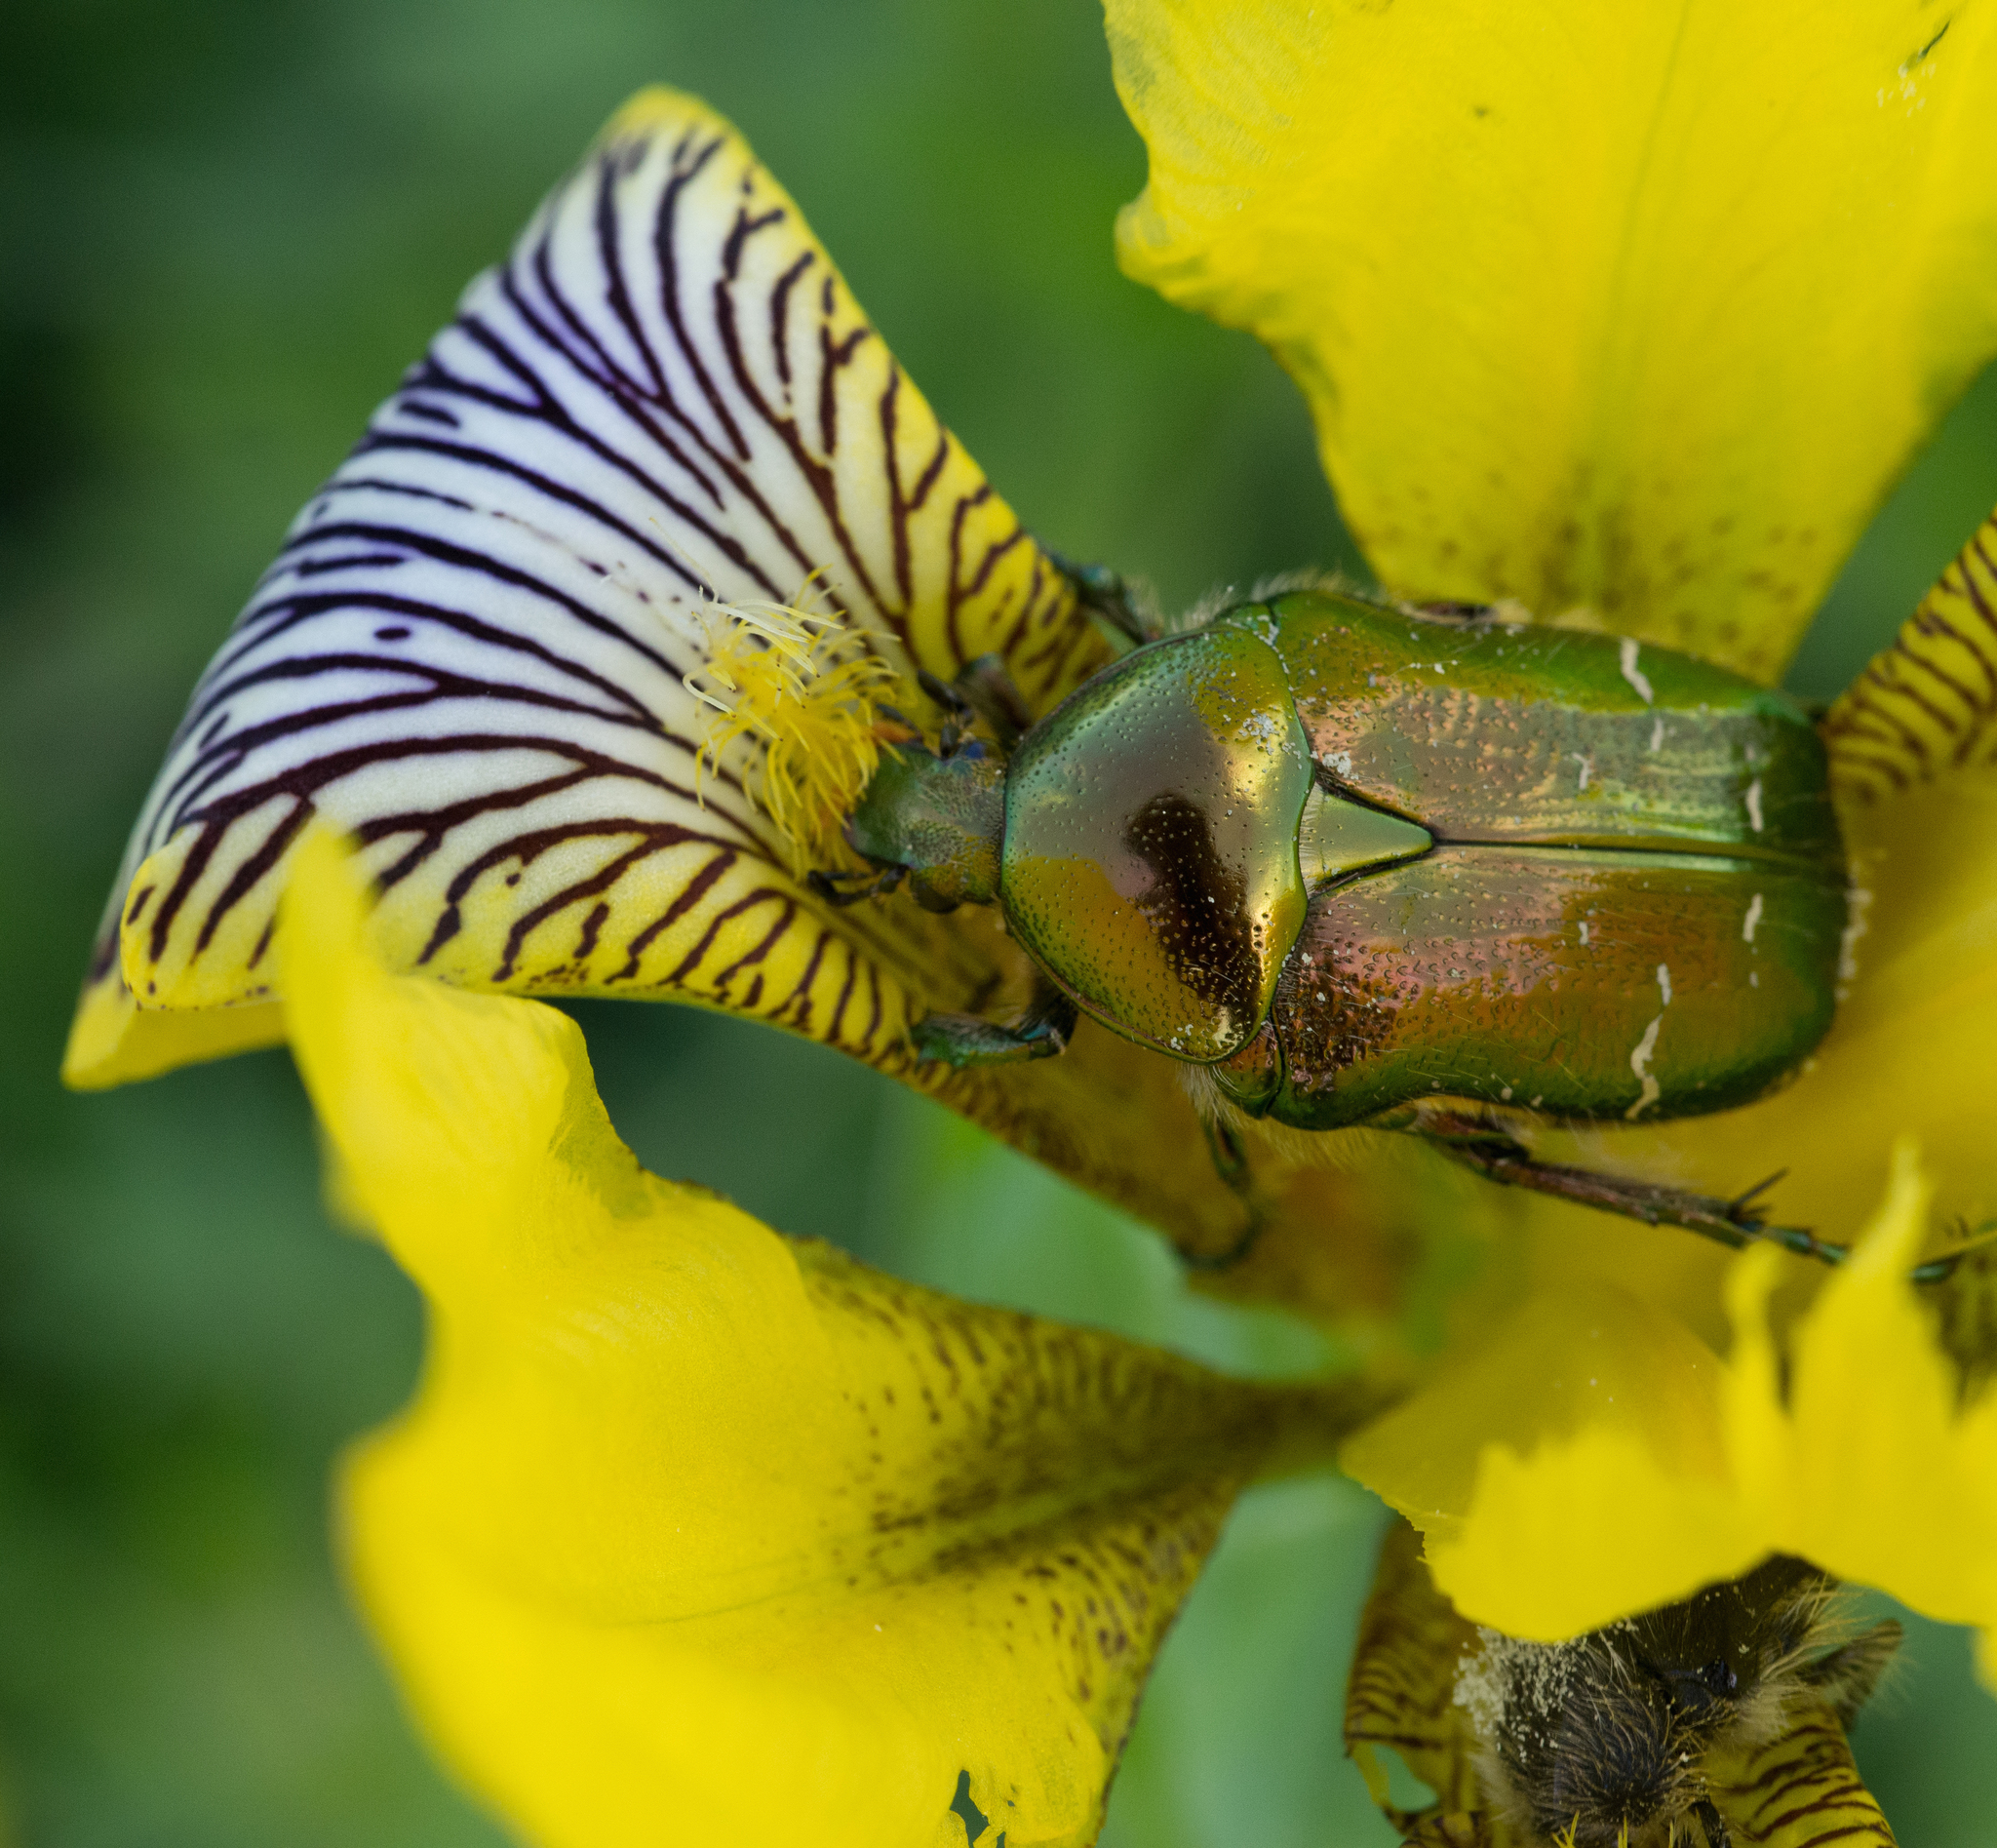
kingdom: Animalia
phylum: Arthropoda
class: Insecta
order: Coleoptera
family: Scarabaeidae
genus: Cetonia
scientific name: Cetonia aurata
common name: Rose chafer
